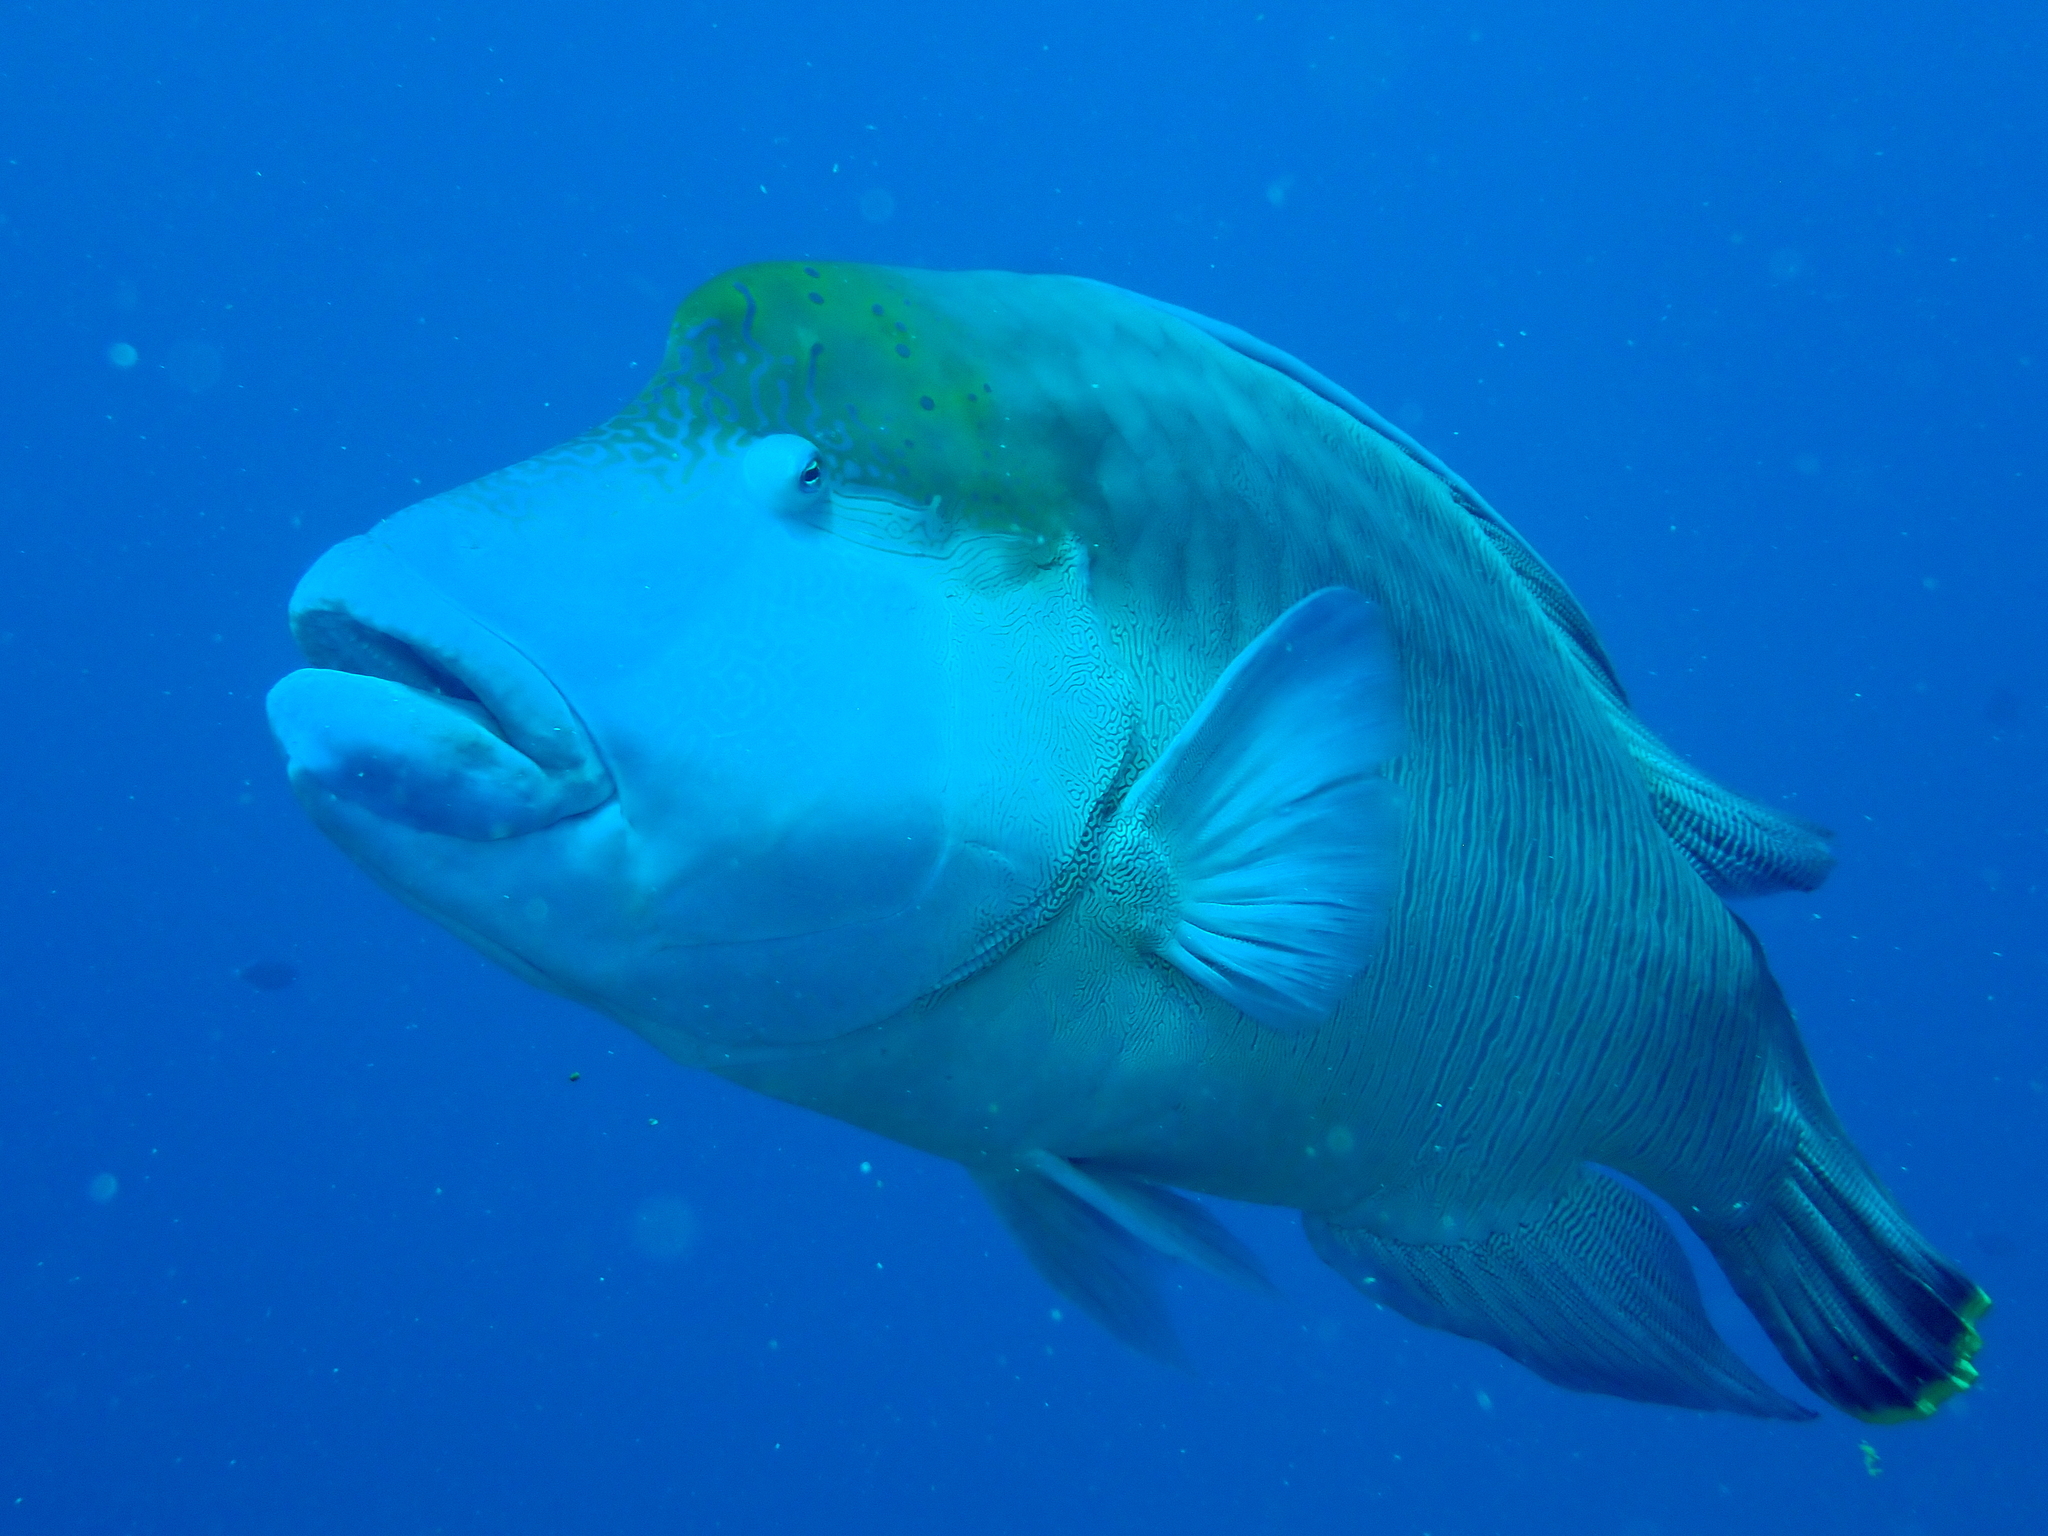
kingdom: Animalia
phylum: Chordata
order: Perciformes
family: Labridae
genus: Cheilinus
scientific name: Cheilinus undulatus
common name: Humphead wrasse
